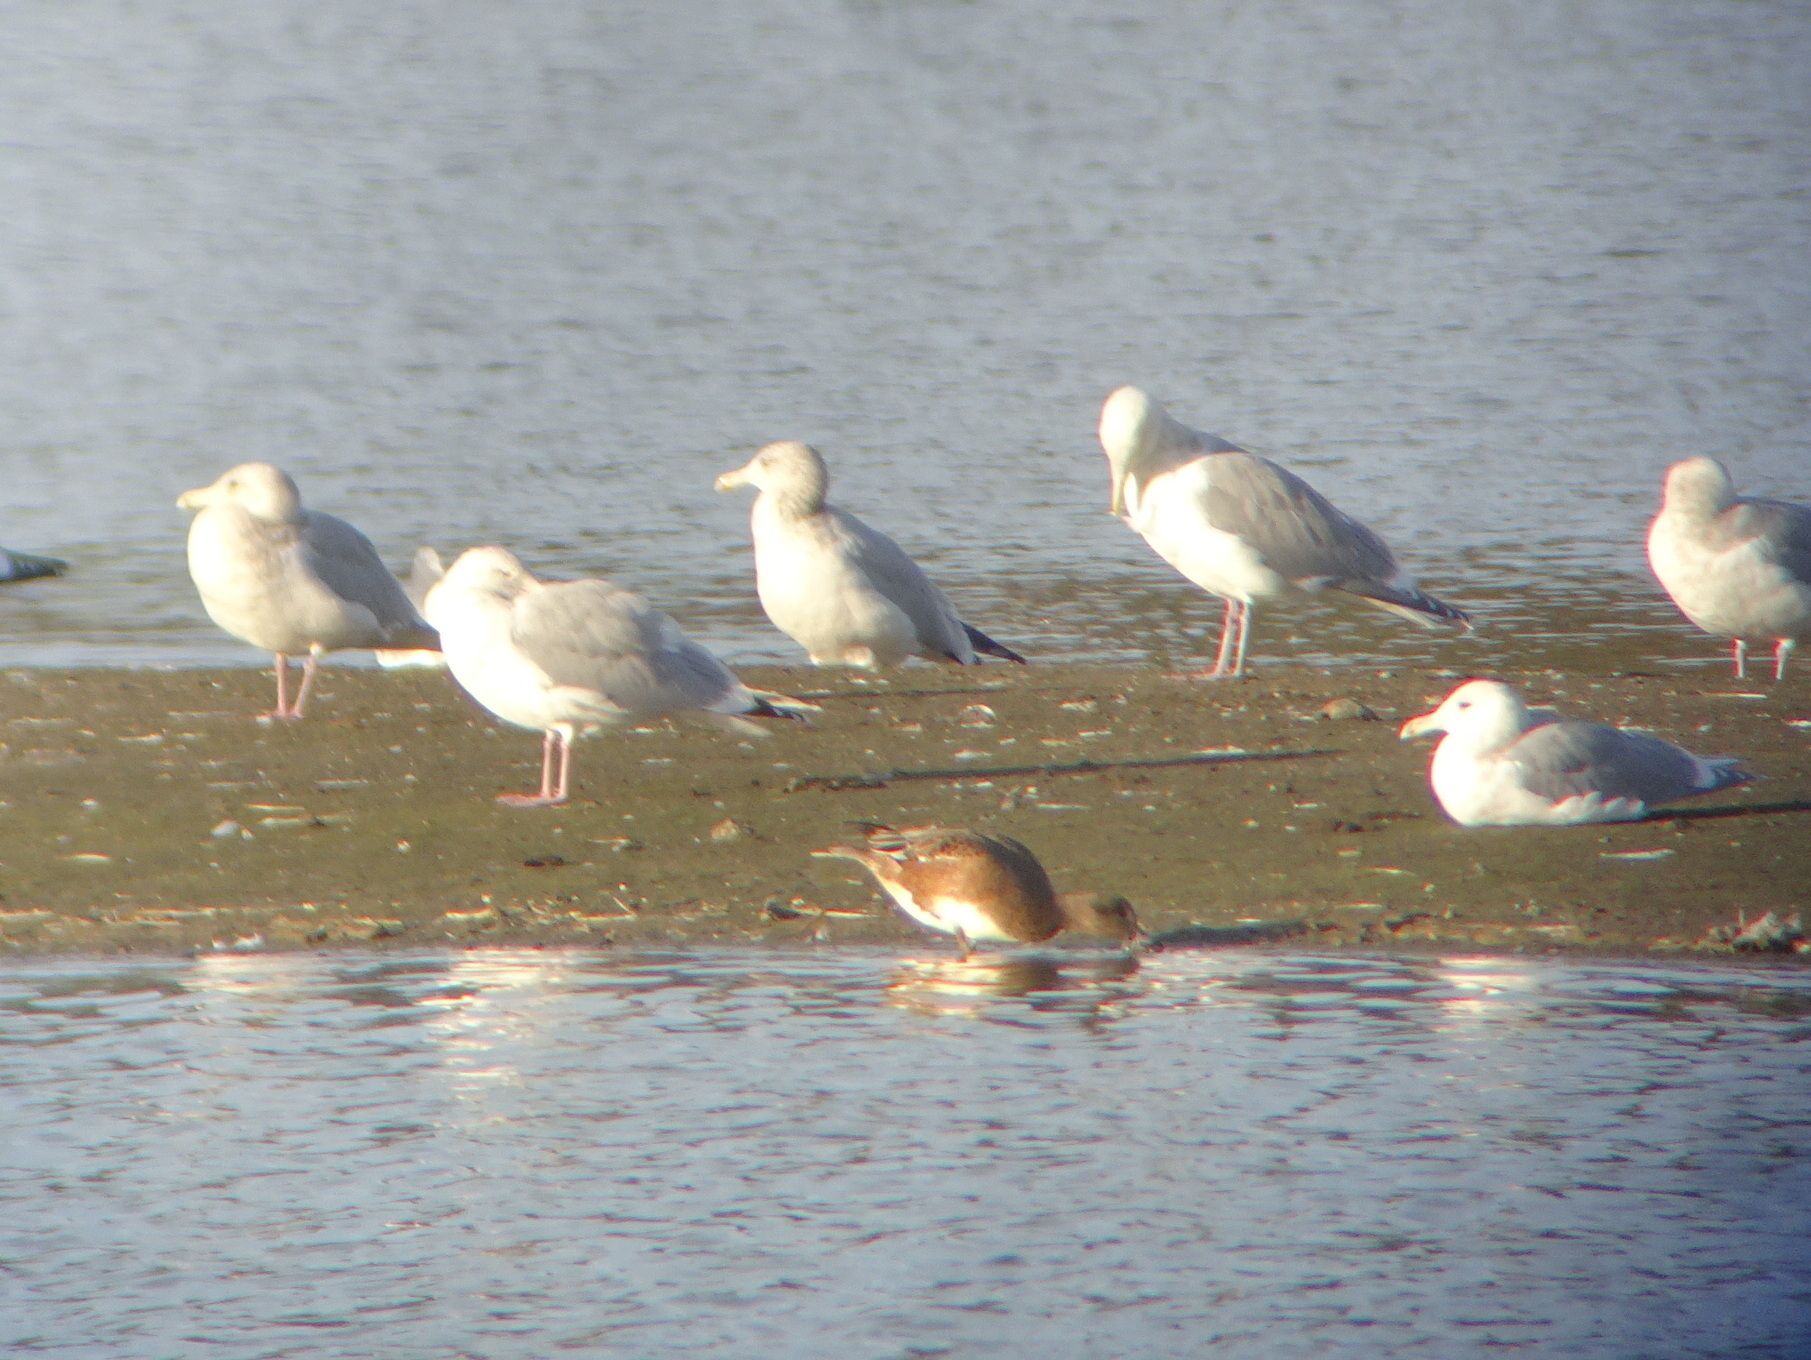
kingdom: Animalia
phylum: Chordata
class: Aves
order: Anseriformes
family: Anatidae
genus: Mareca
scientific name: Mareca americana
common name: American wigeon
